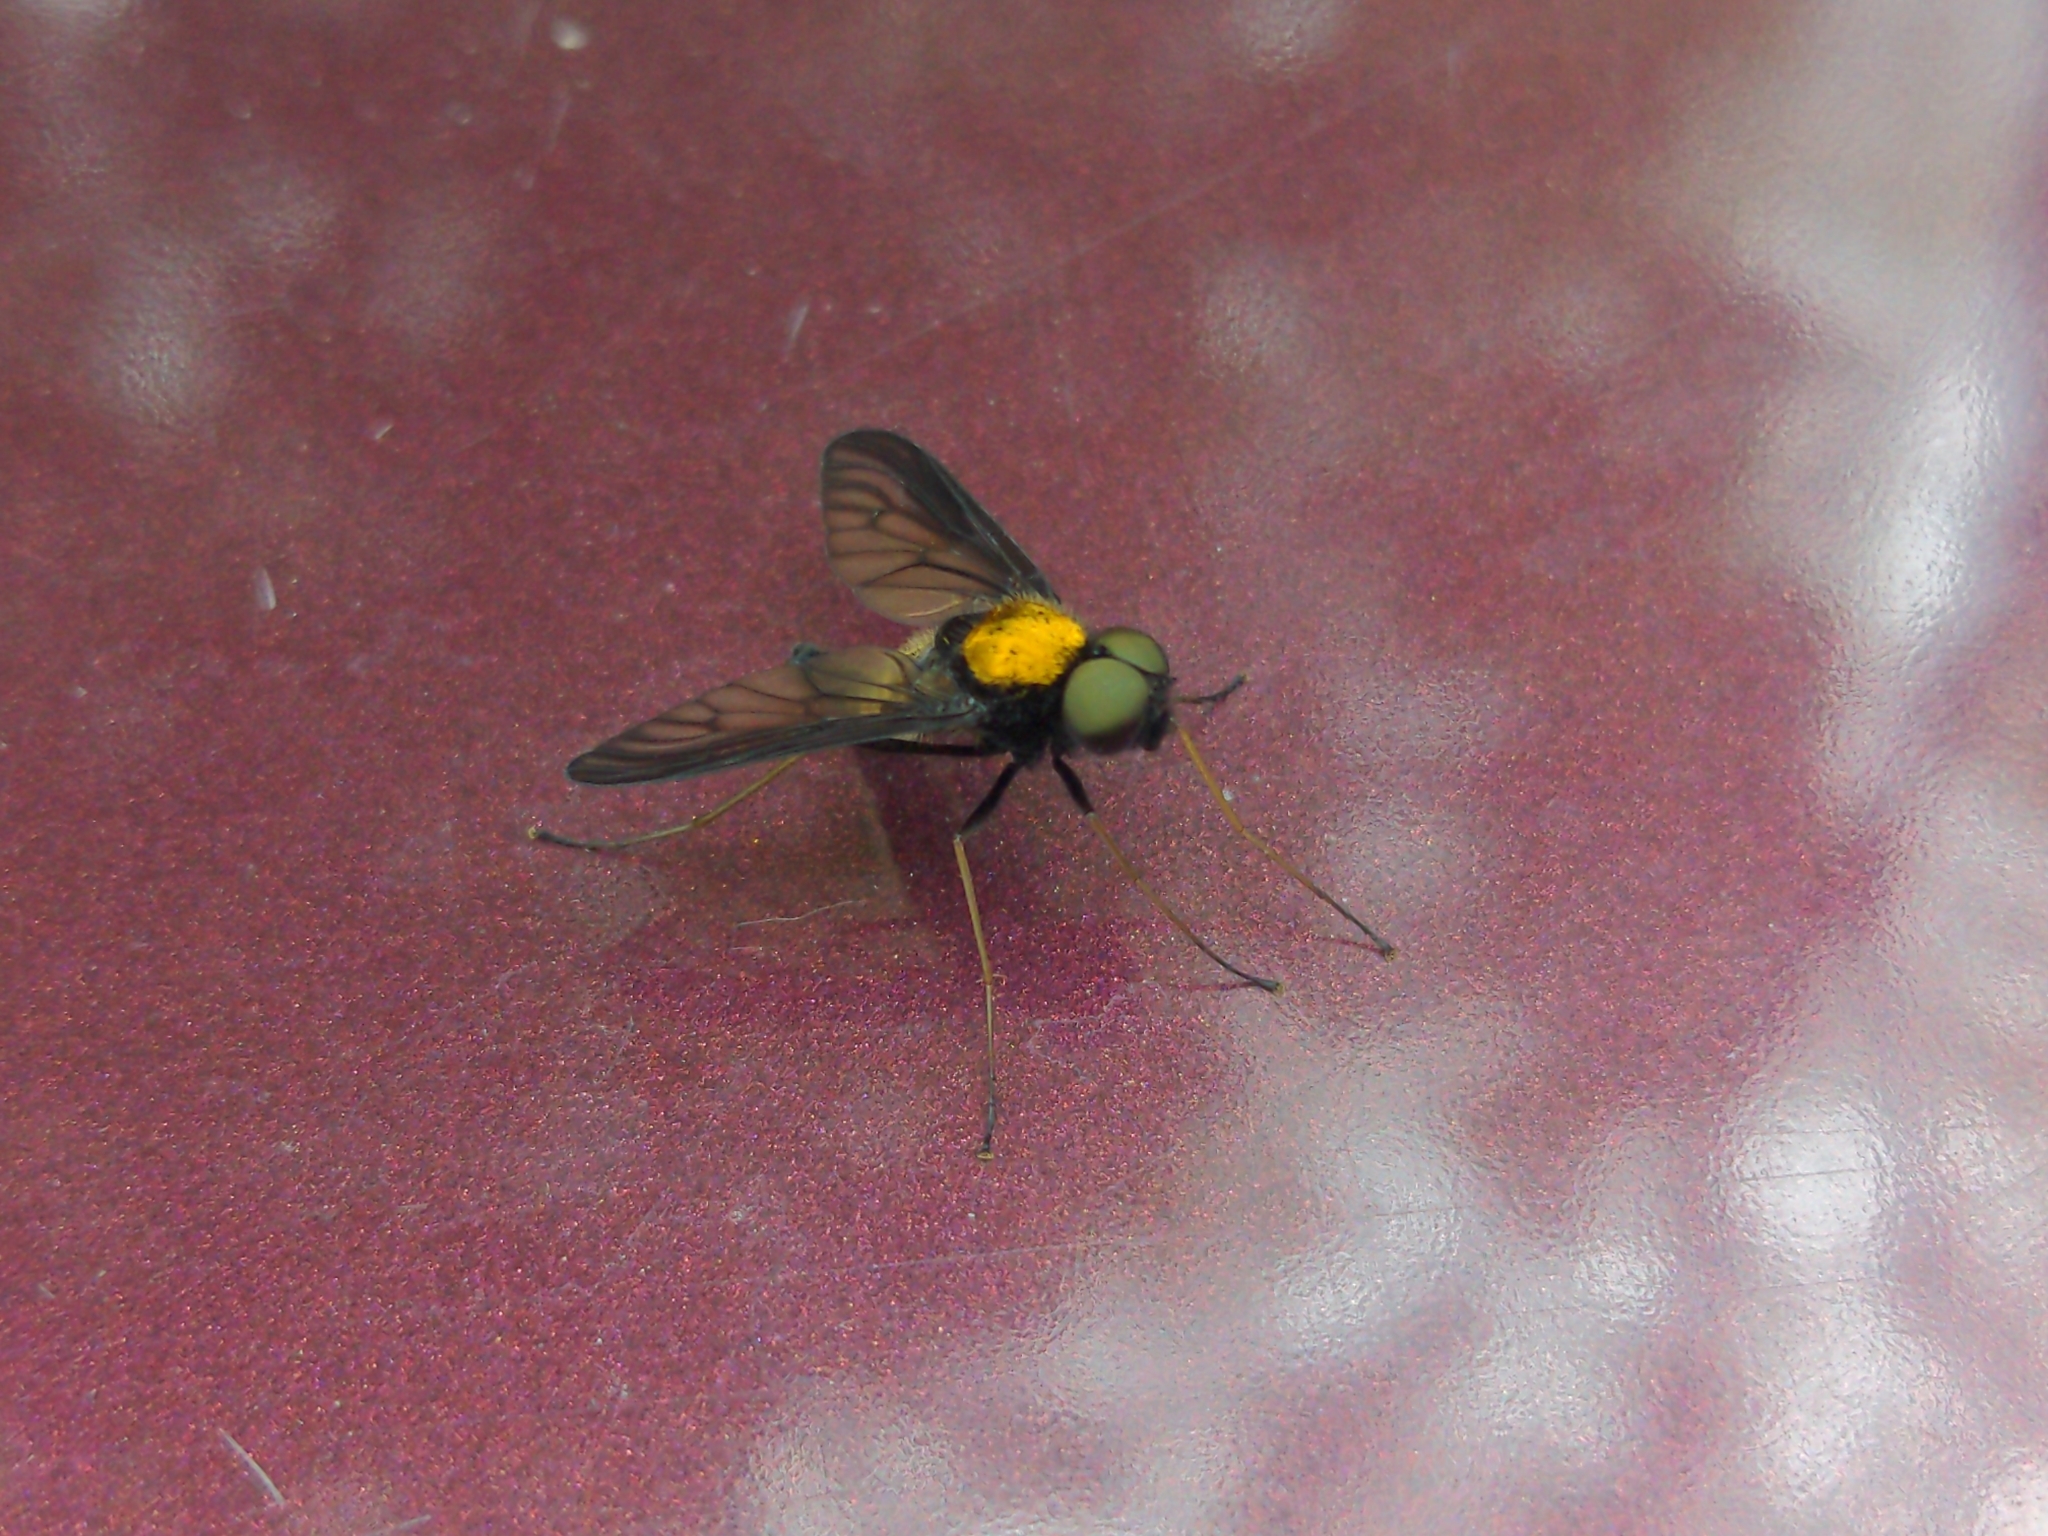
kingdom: Animalia
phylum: Arthropoda
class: Insecta
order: Diptera
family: Rhagionidae
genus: Chrysopilus
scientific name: Chrysopilus thoracicus
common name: Golden-backed snipe fly
